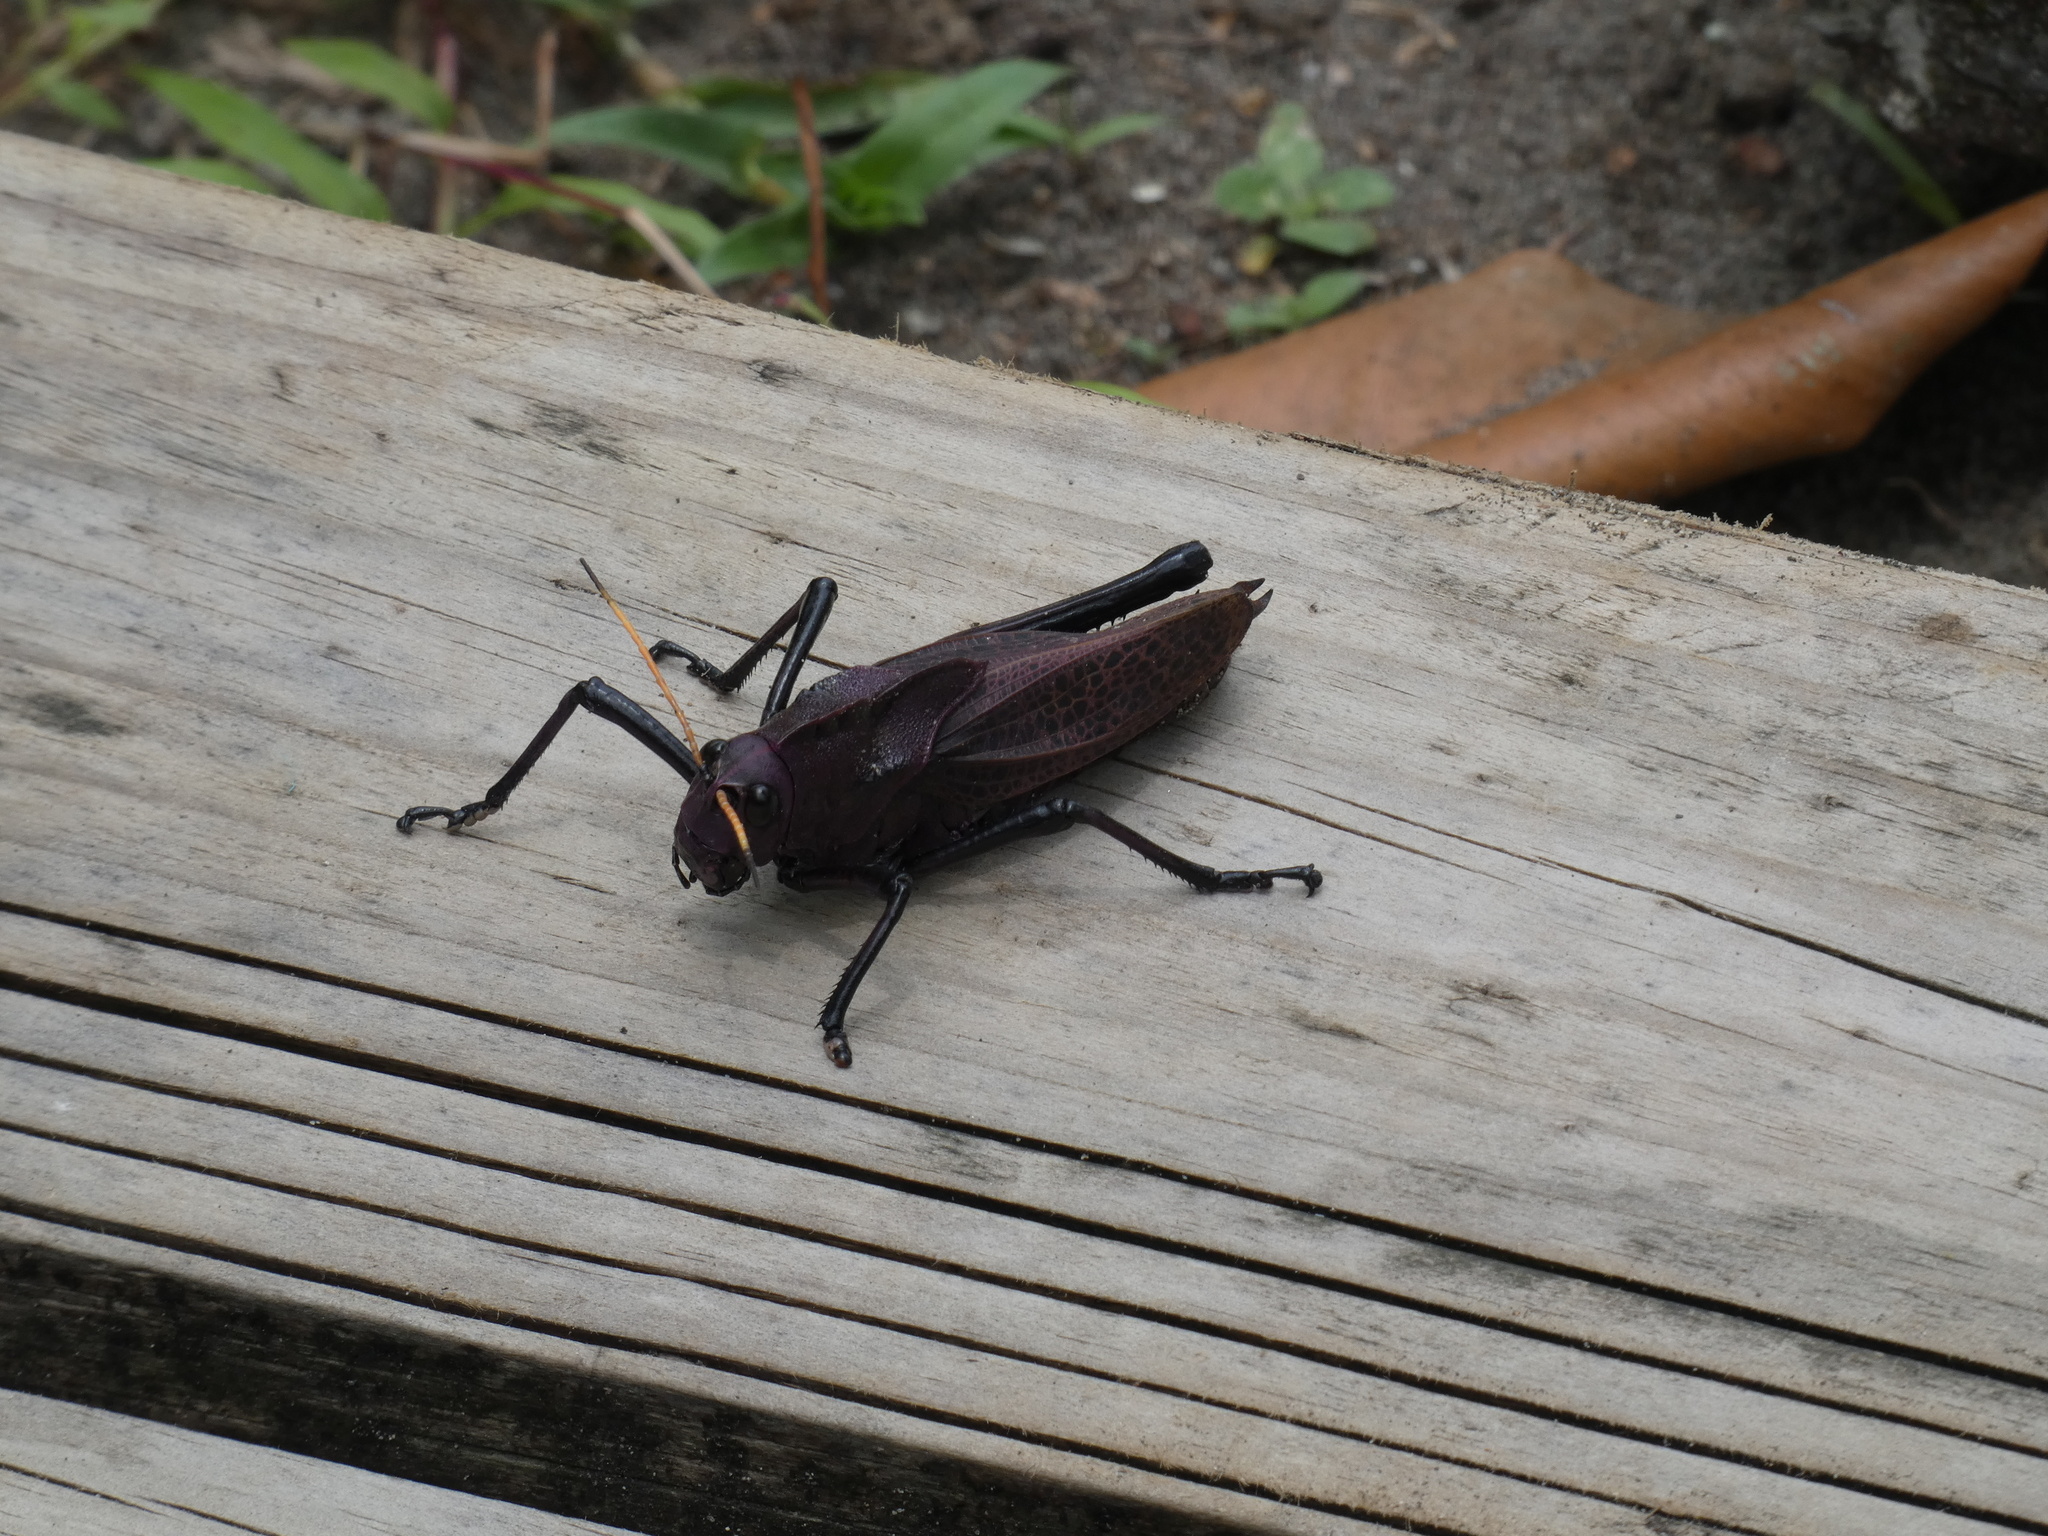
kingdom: Animalia
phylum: Arthropoda
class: Insecta
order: Orthoptera
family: Romaleidae
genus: Romalea
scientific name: Romalea
